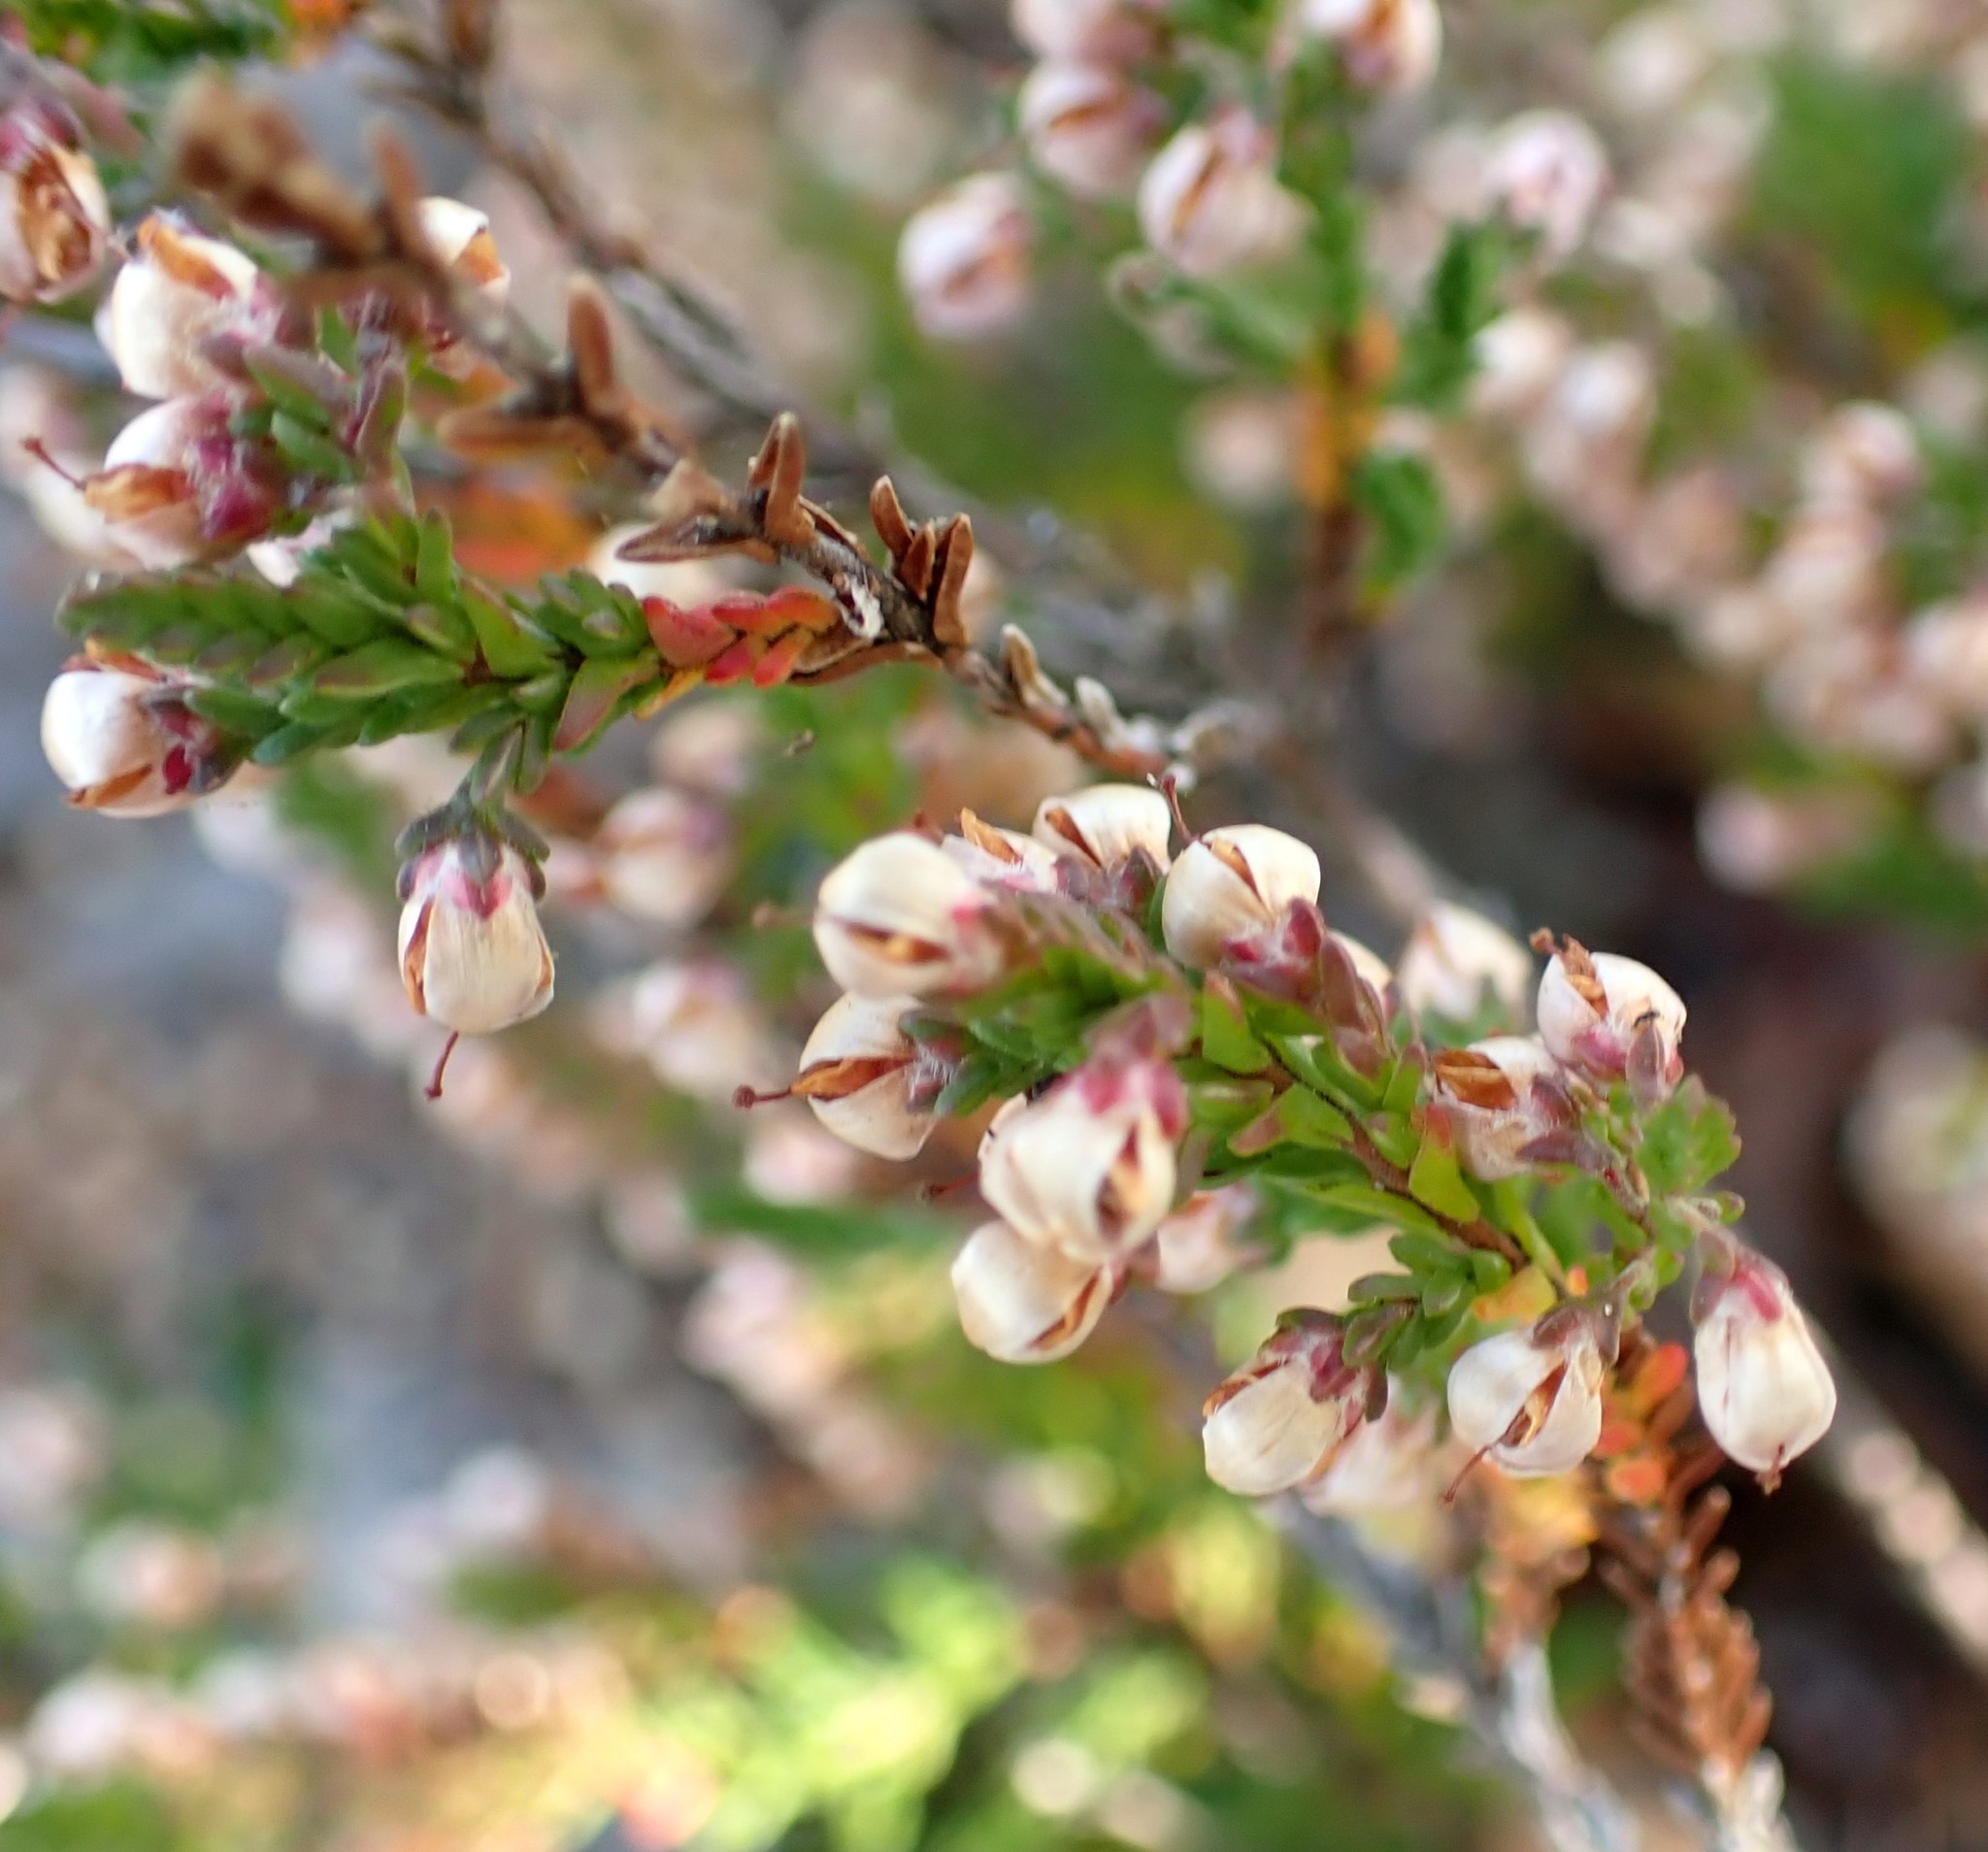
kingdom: Plantae
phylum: Tracheophyta
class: Magnoliopsida
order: Ericales
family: Ericaceae
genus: Calluna
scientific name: Calluna vulgaris
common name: Heather
